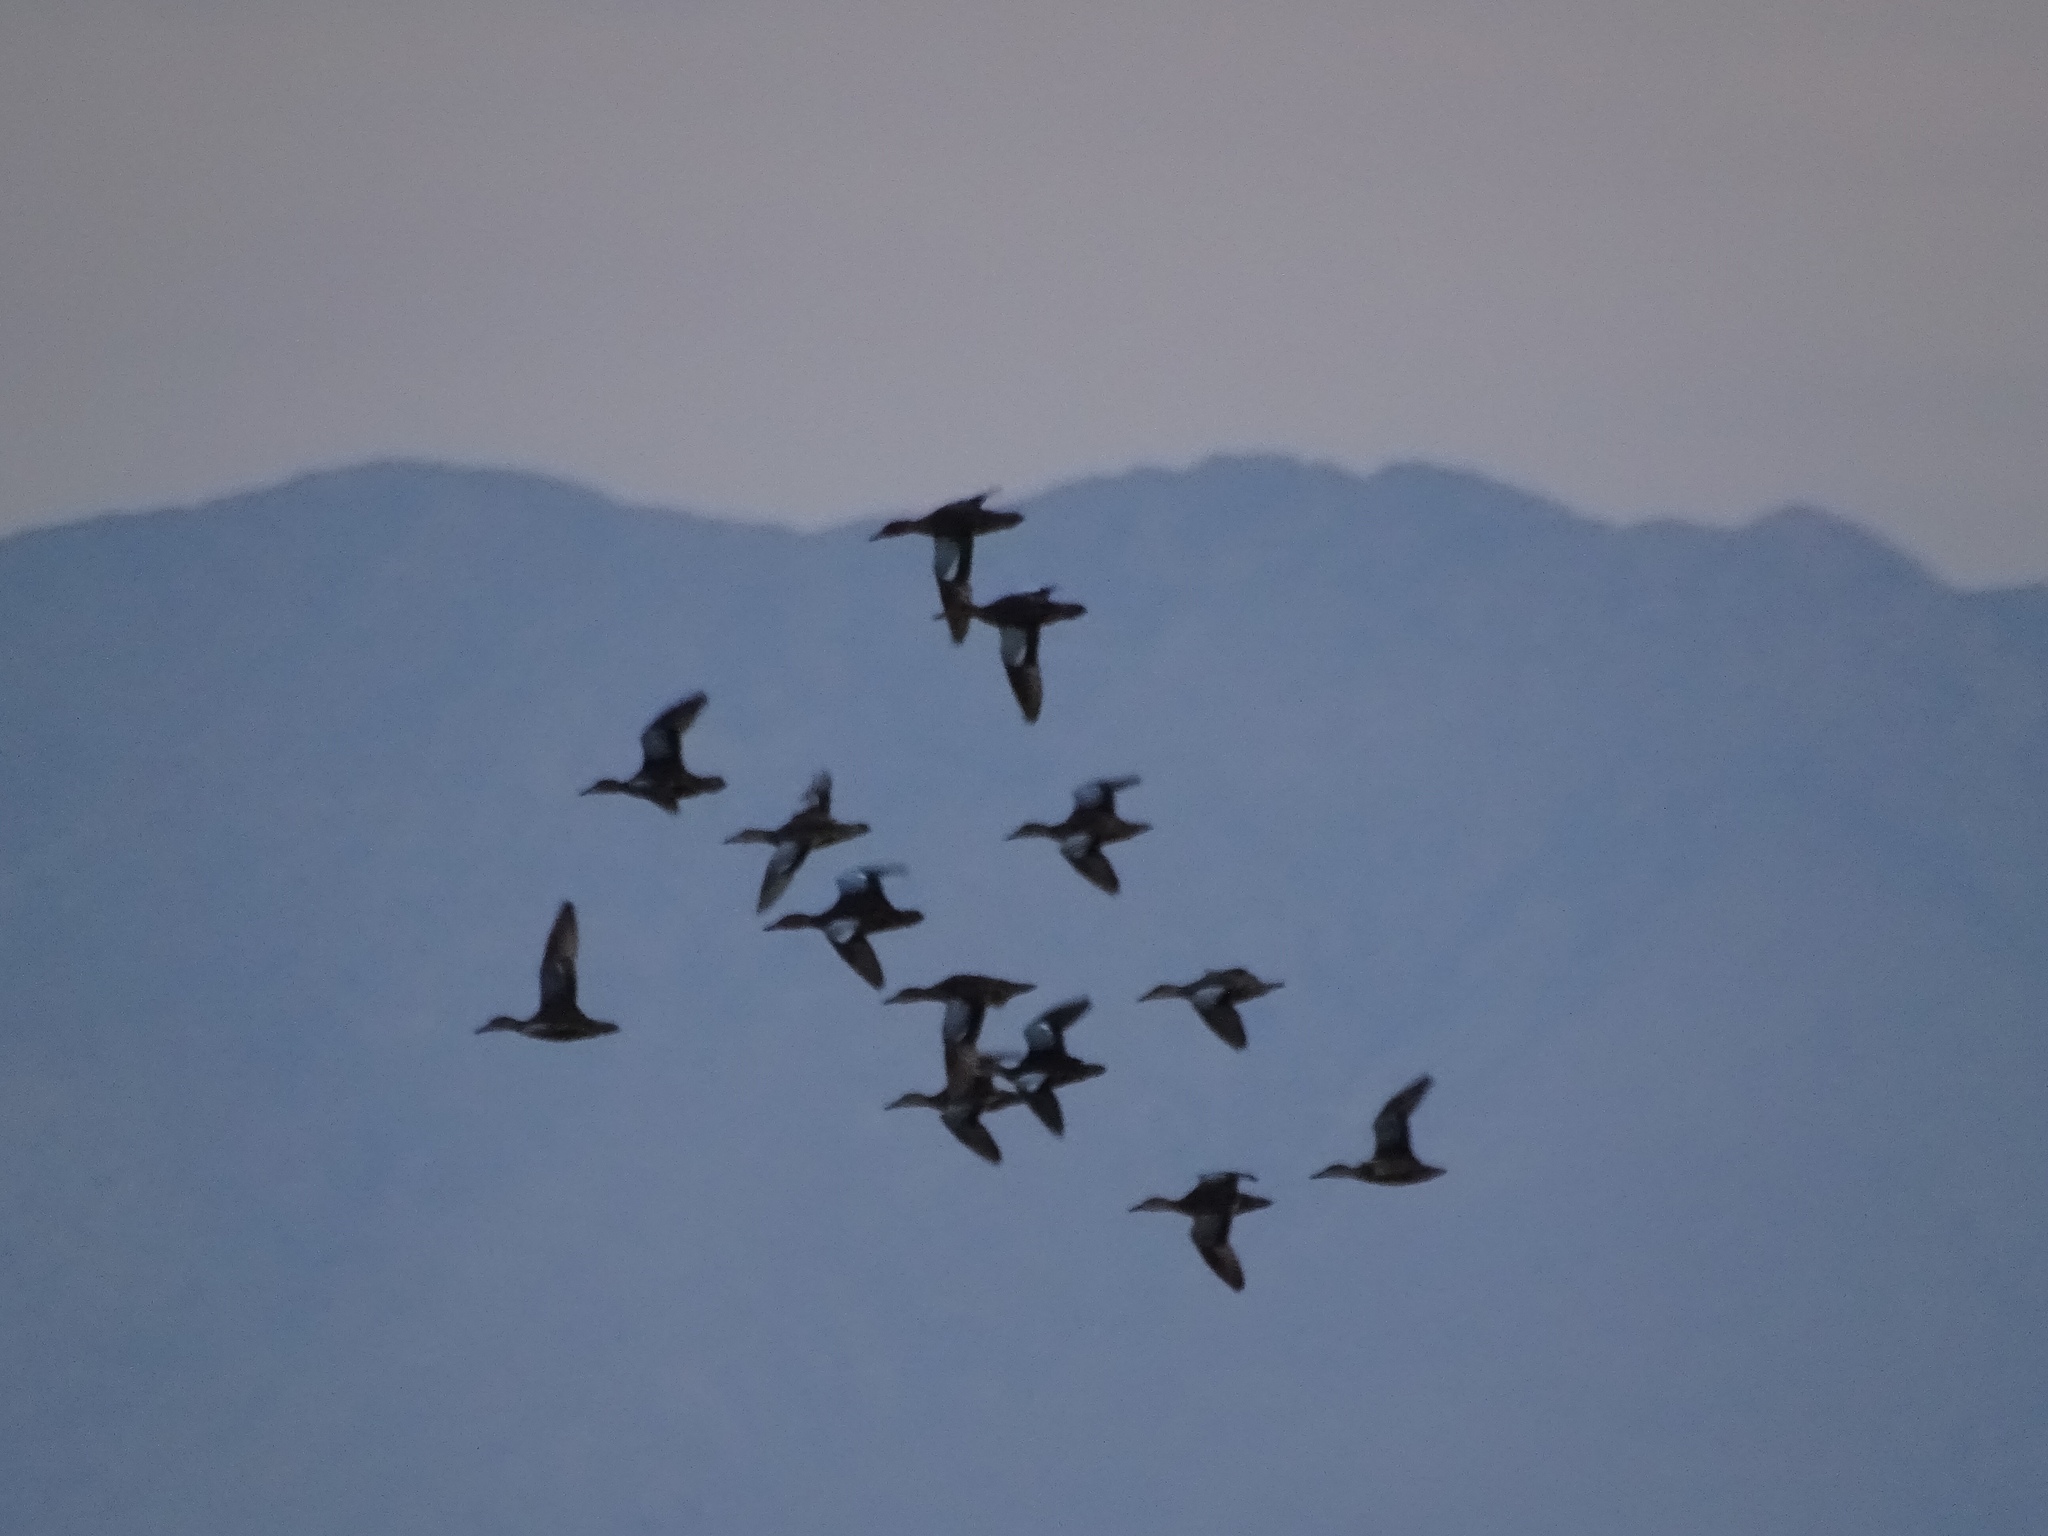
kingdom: Animalia
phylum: Chordata
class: Aves
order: Anseriformes
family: Anatidae
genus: Spatula
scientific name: Spatula cyanoptera
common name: Cinnamon teal
